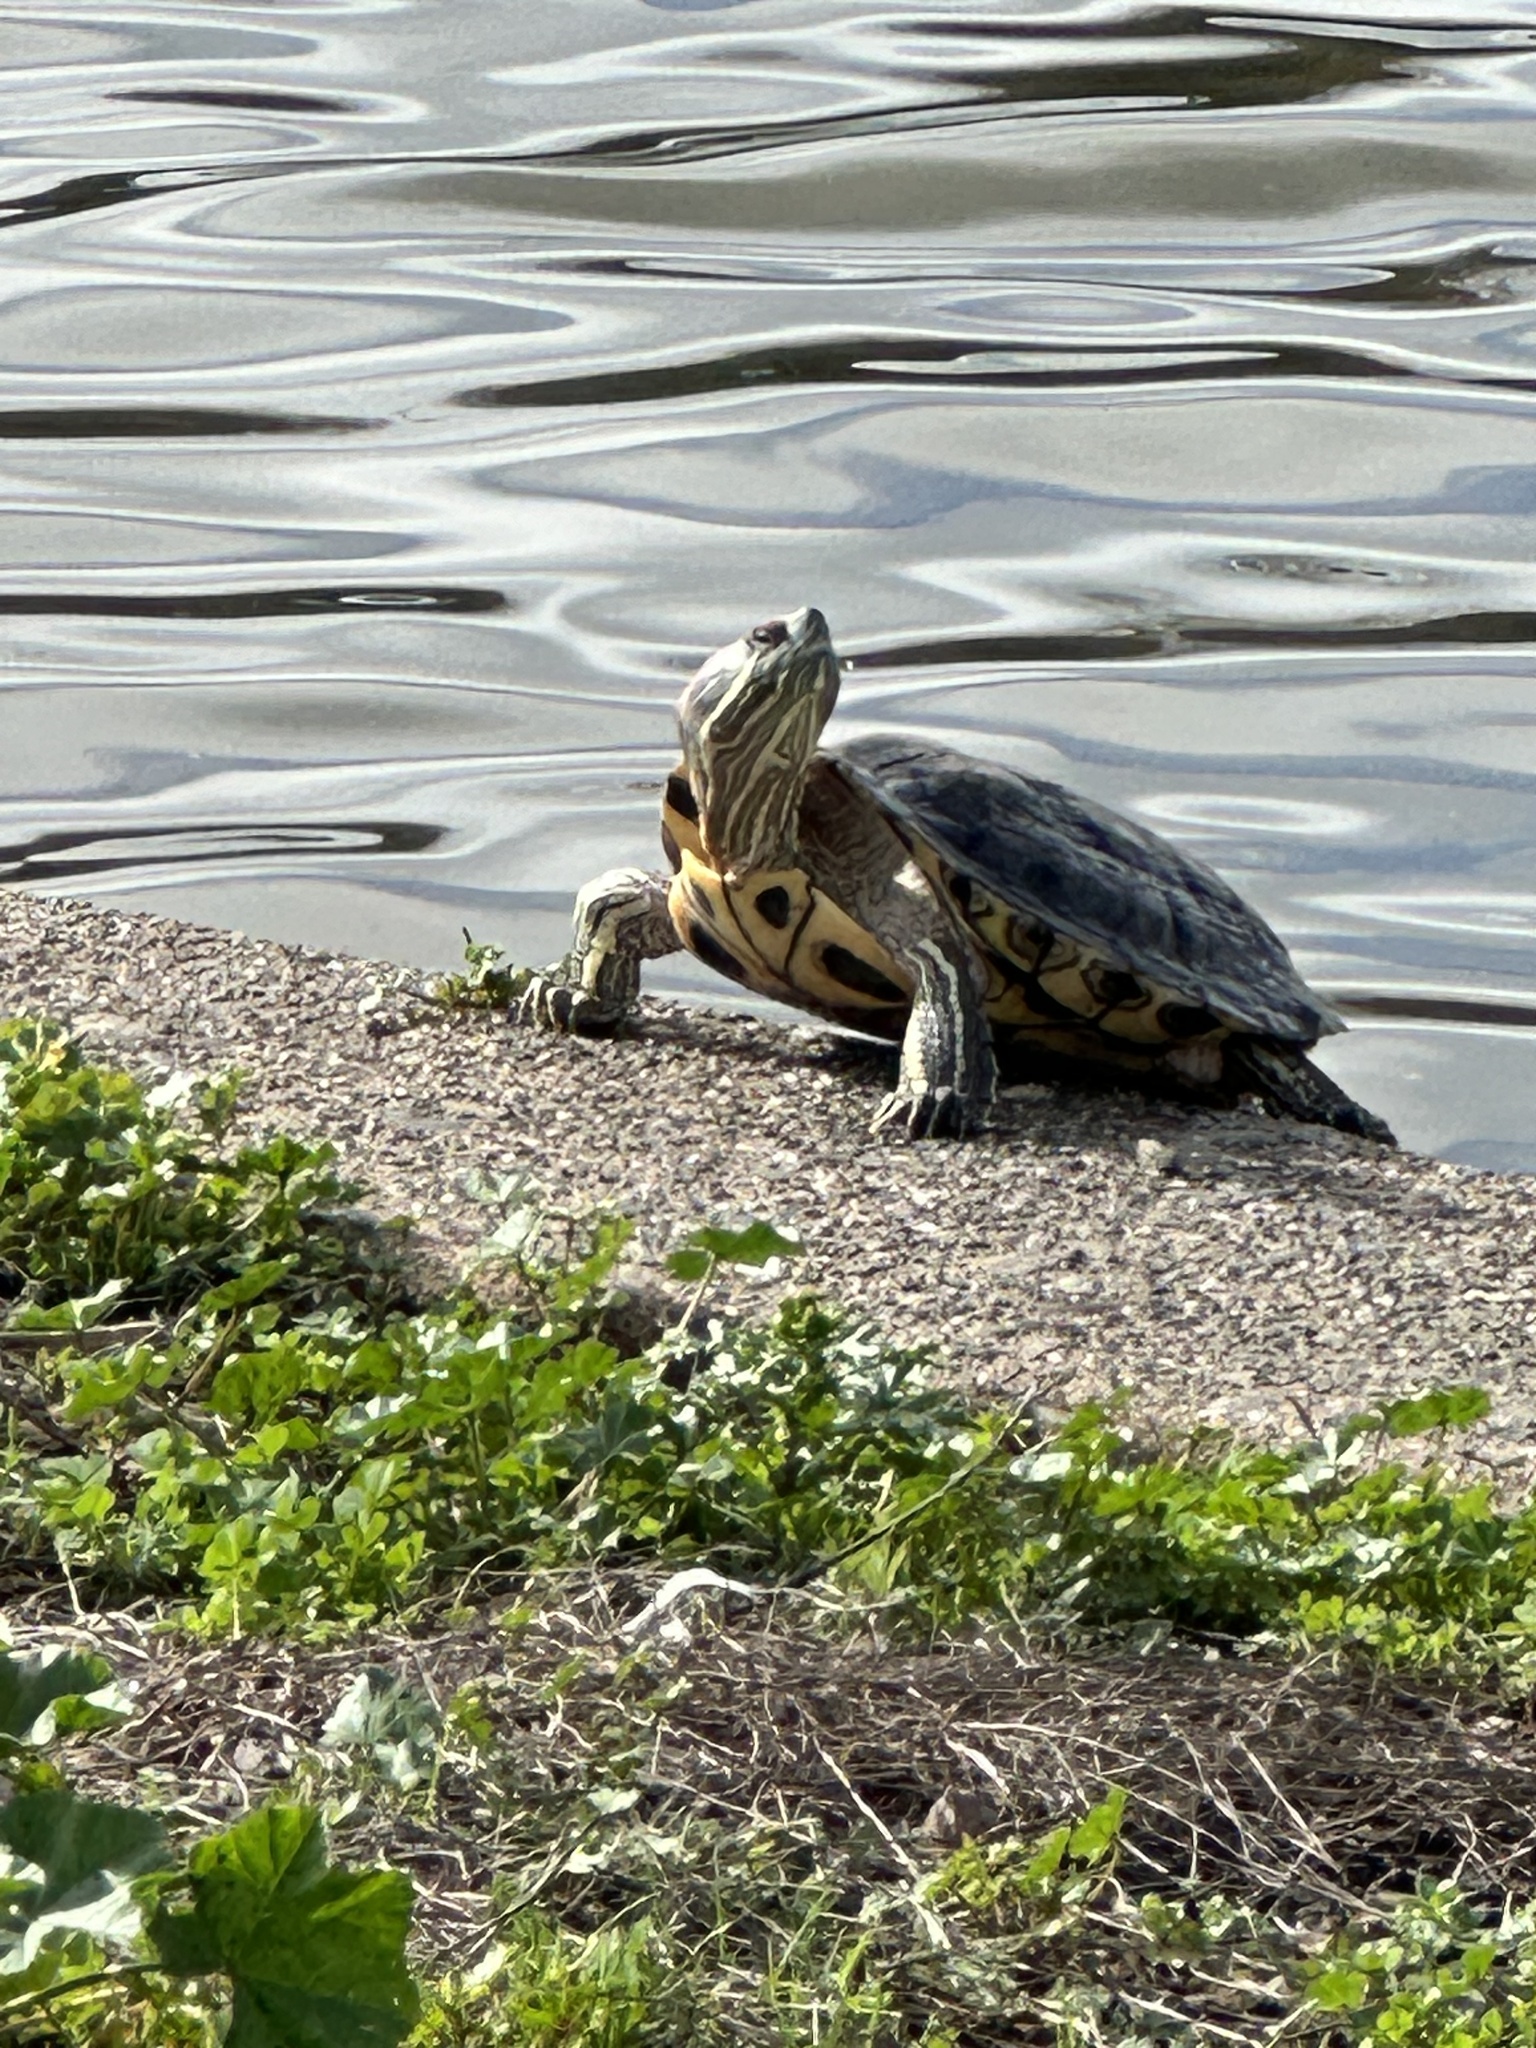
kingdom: Animalia
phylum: Chordata
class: Testudines
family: Emydidae
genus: Trachemys
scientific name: Trachemys scripta
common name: Slider
